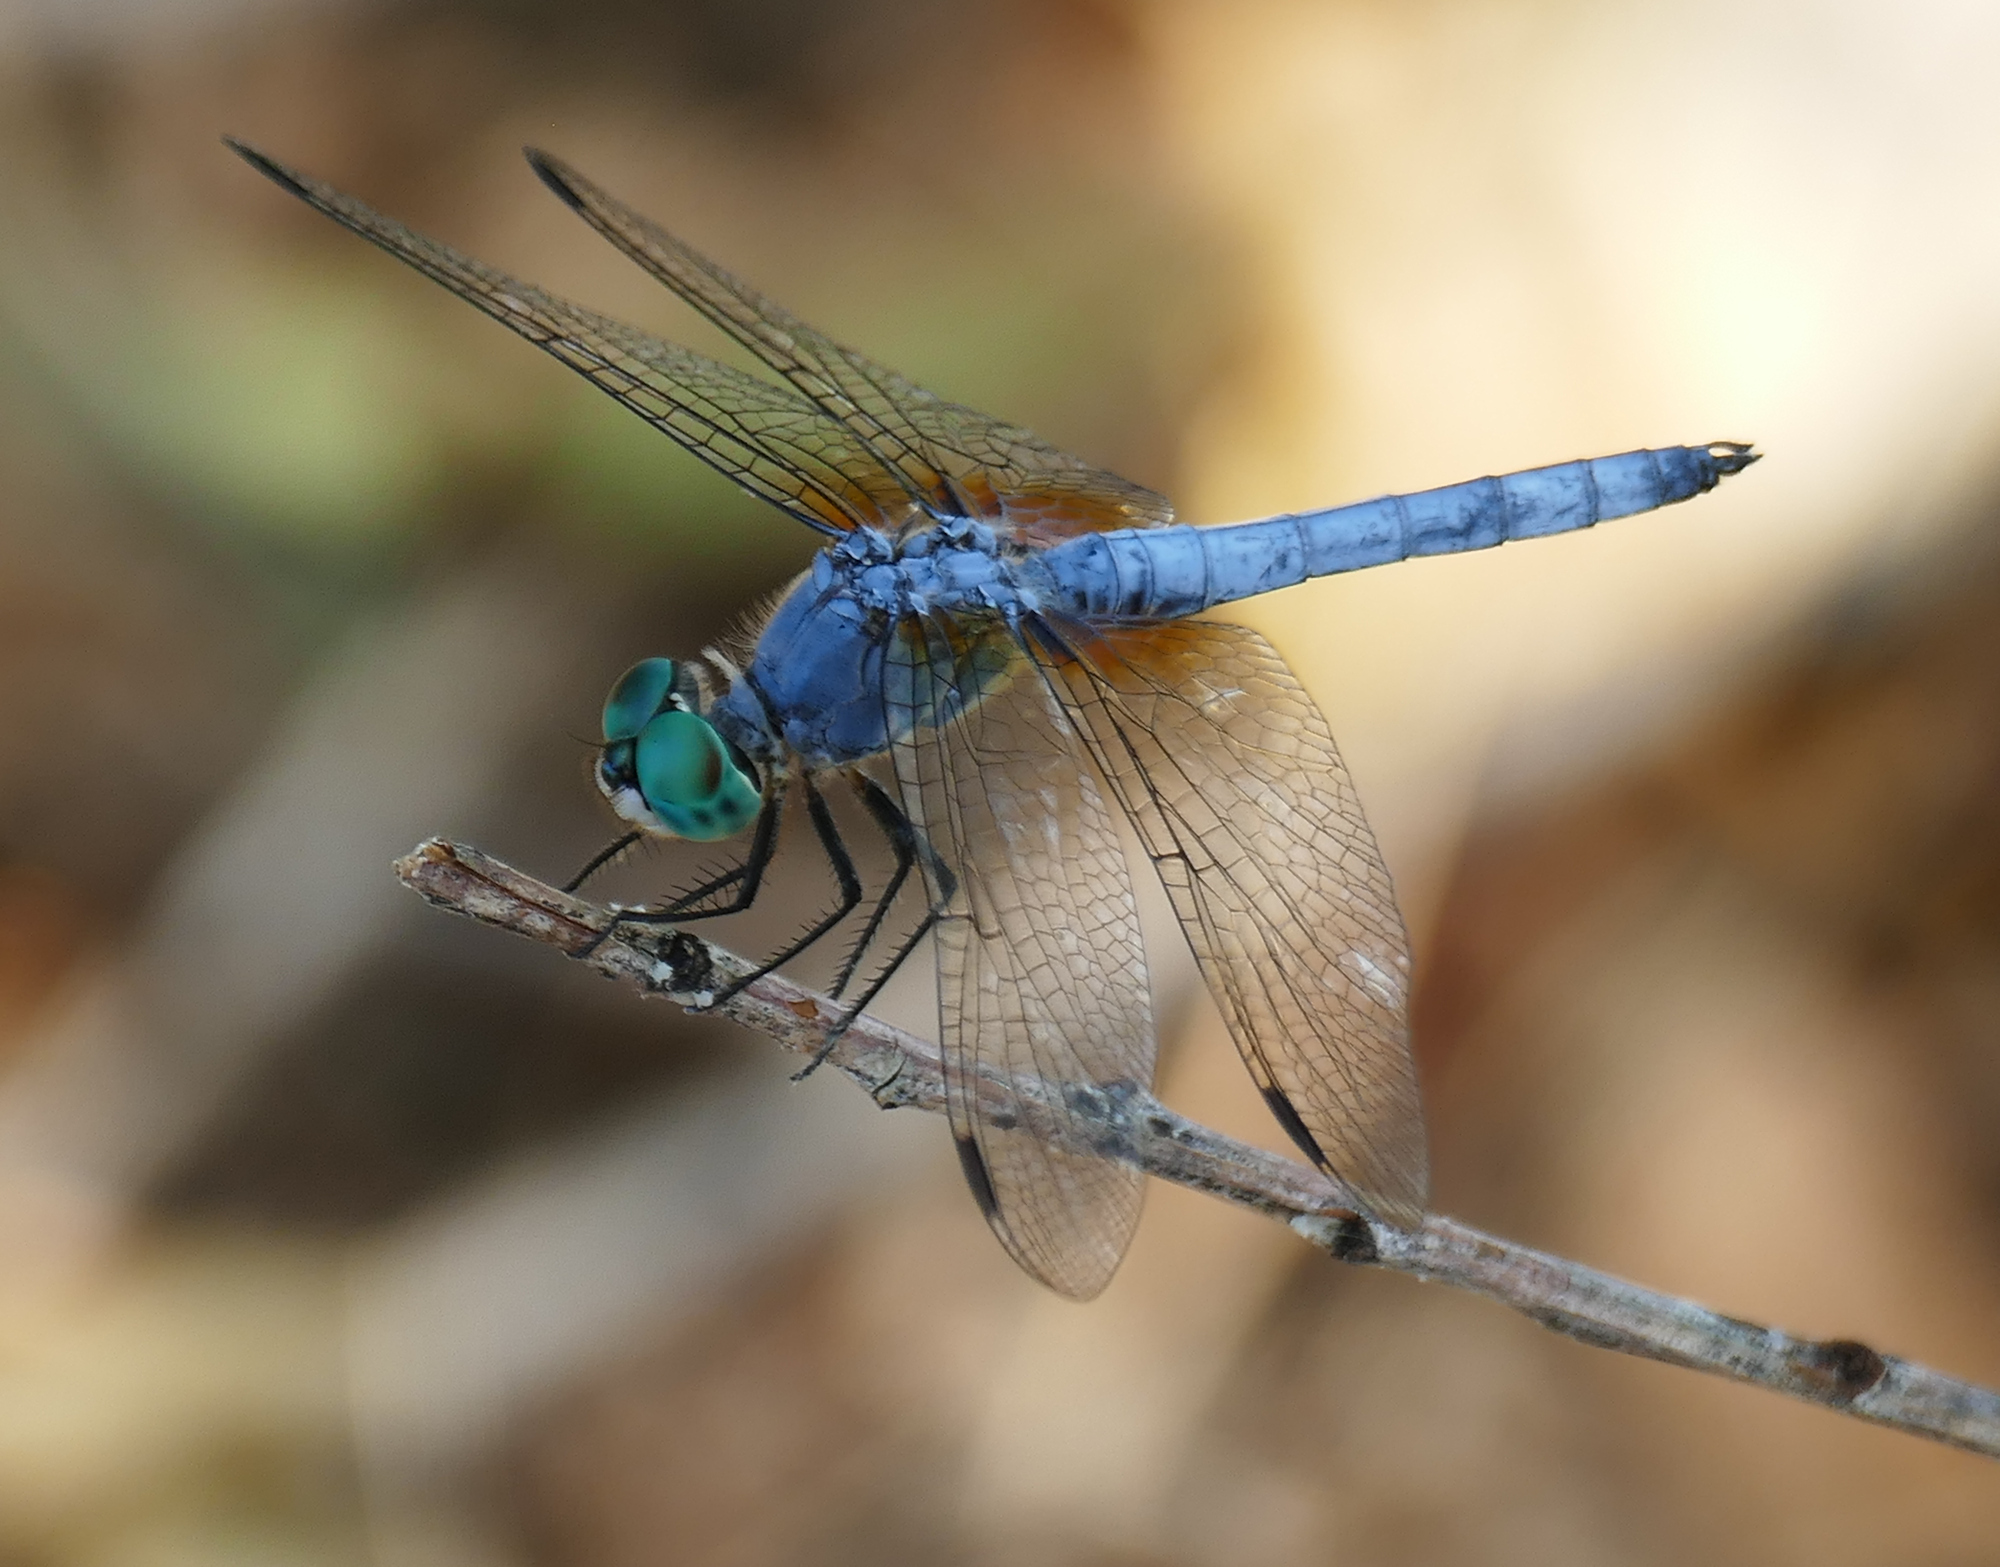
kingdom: Animalia
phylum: Arthropoda
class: Insecta
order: Odonata
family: Libellulidae
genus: Pachydiplax
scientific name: Pachydiplax longipennis
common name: Blue dasher
